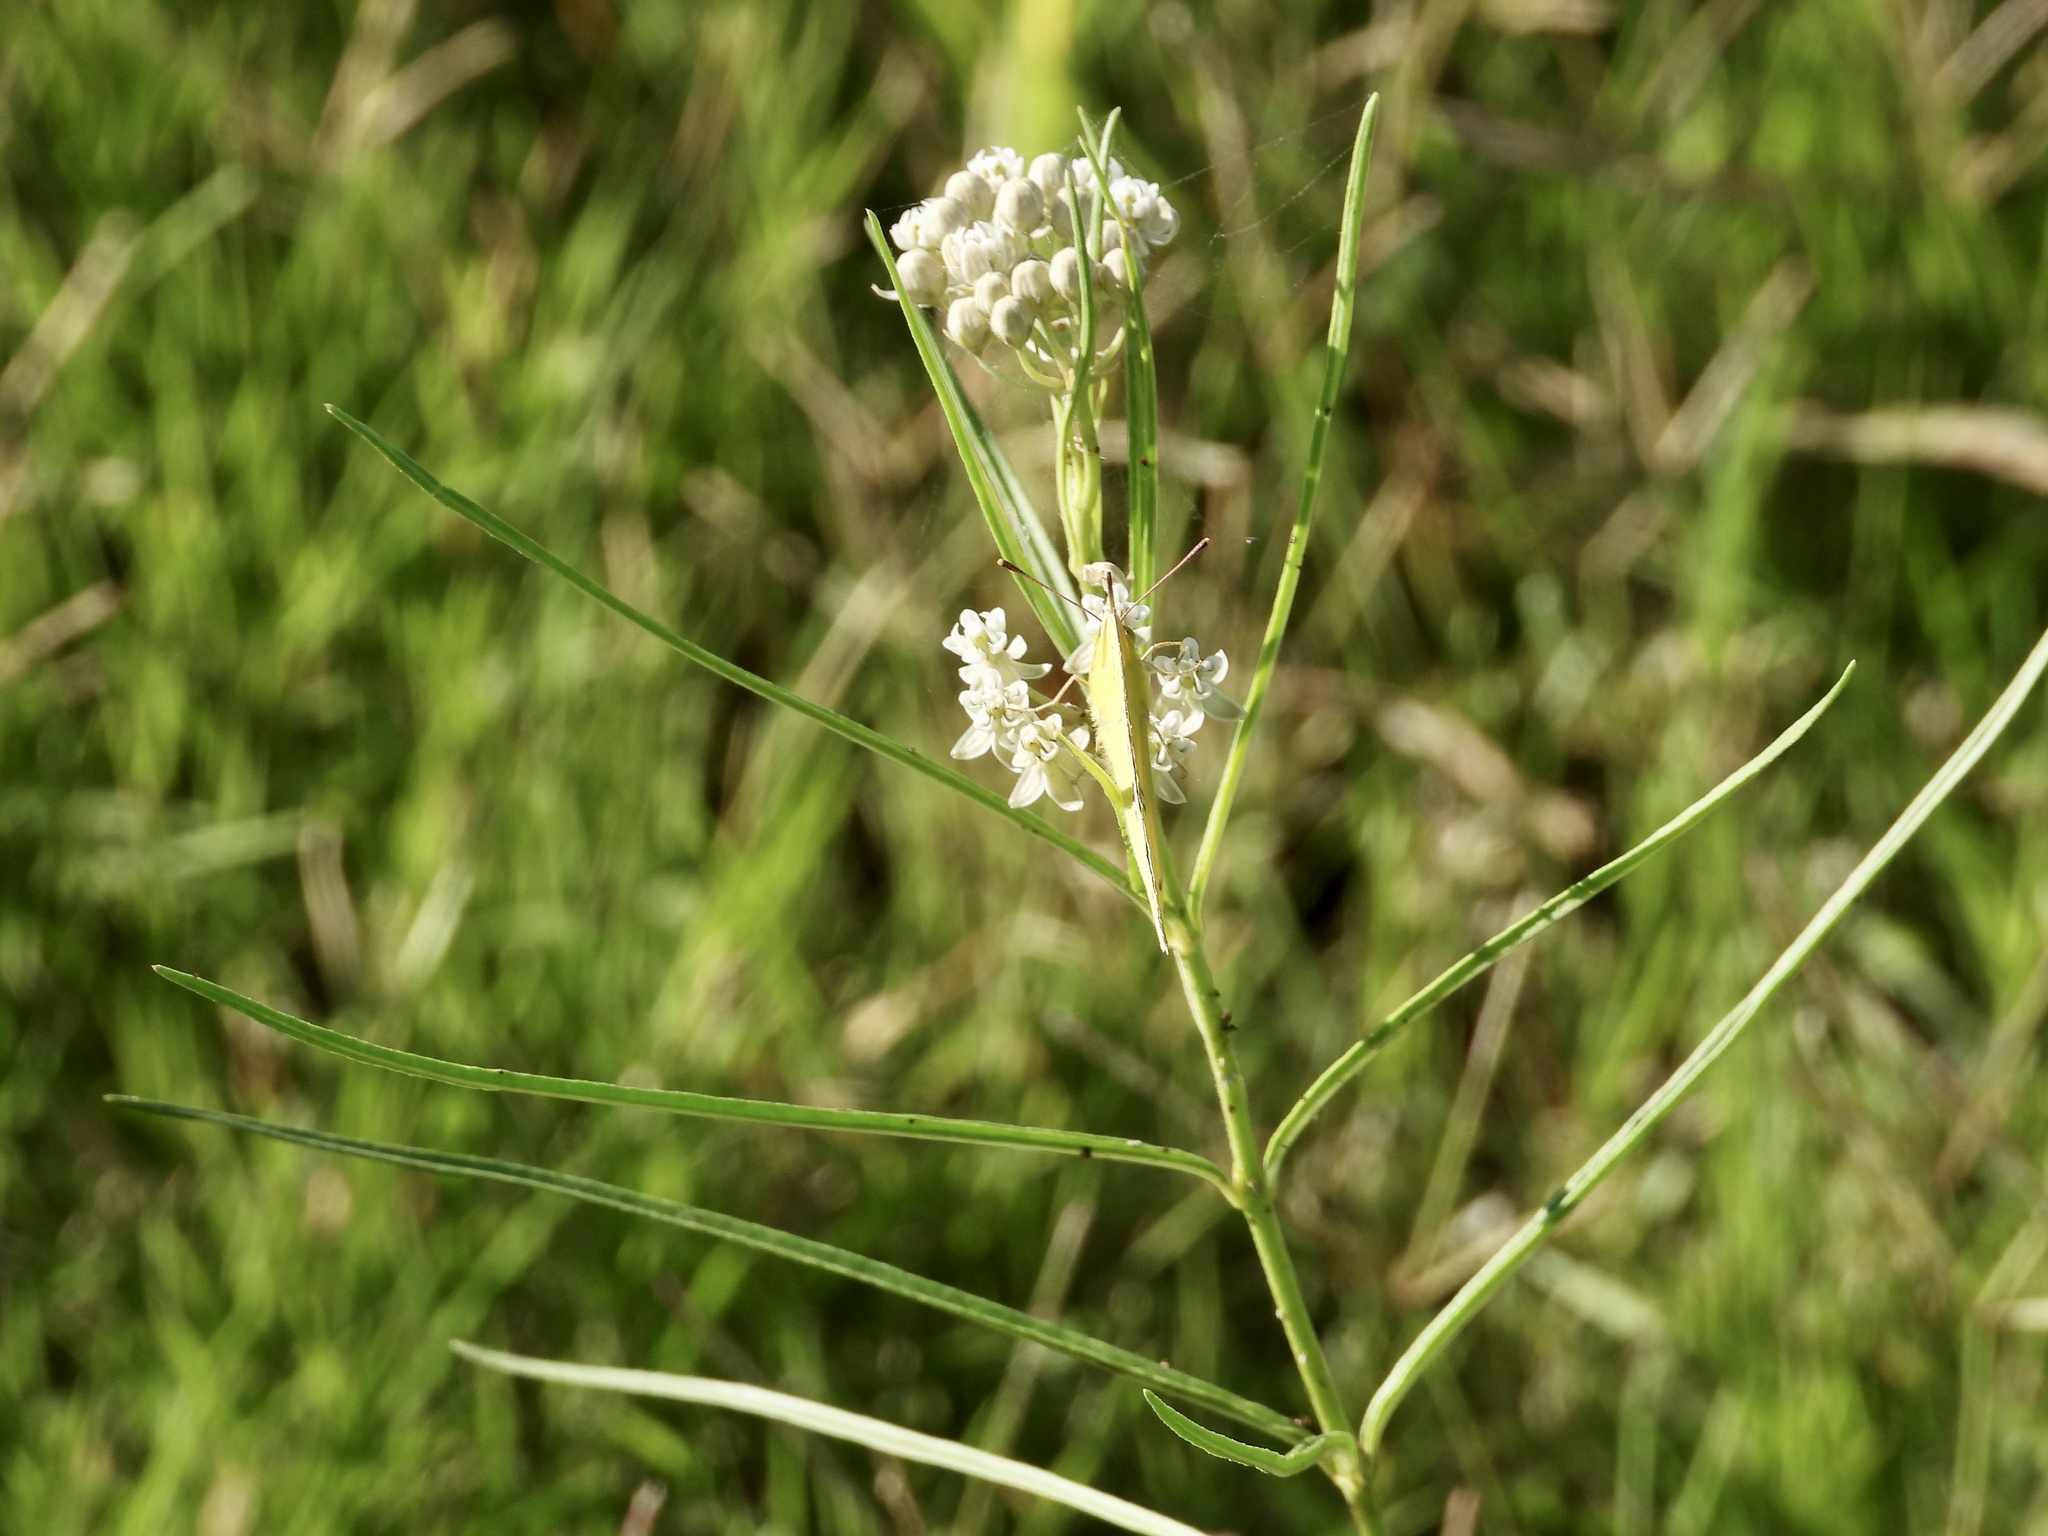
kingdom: Plantae
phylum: Tracheophyta
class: Magnoliopsida
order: Gentianales
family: Apocynaceae
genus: Asclepias
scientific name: Asclepias subverticillata
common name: Horsetail milkweed
